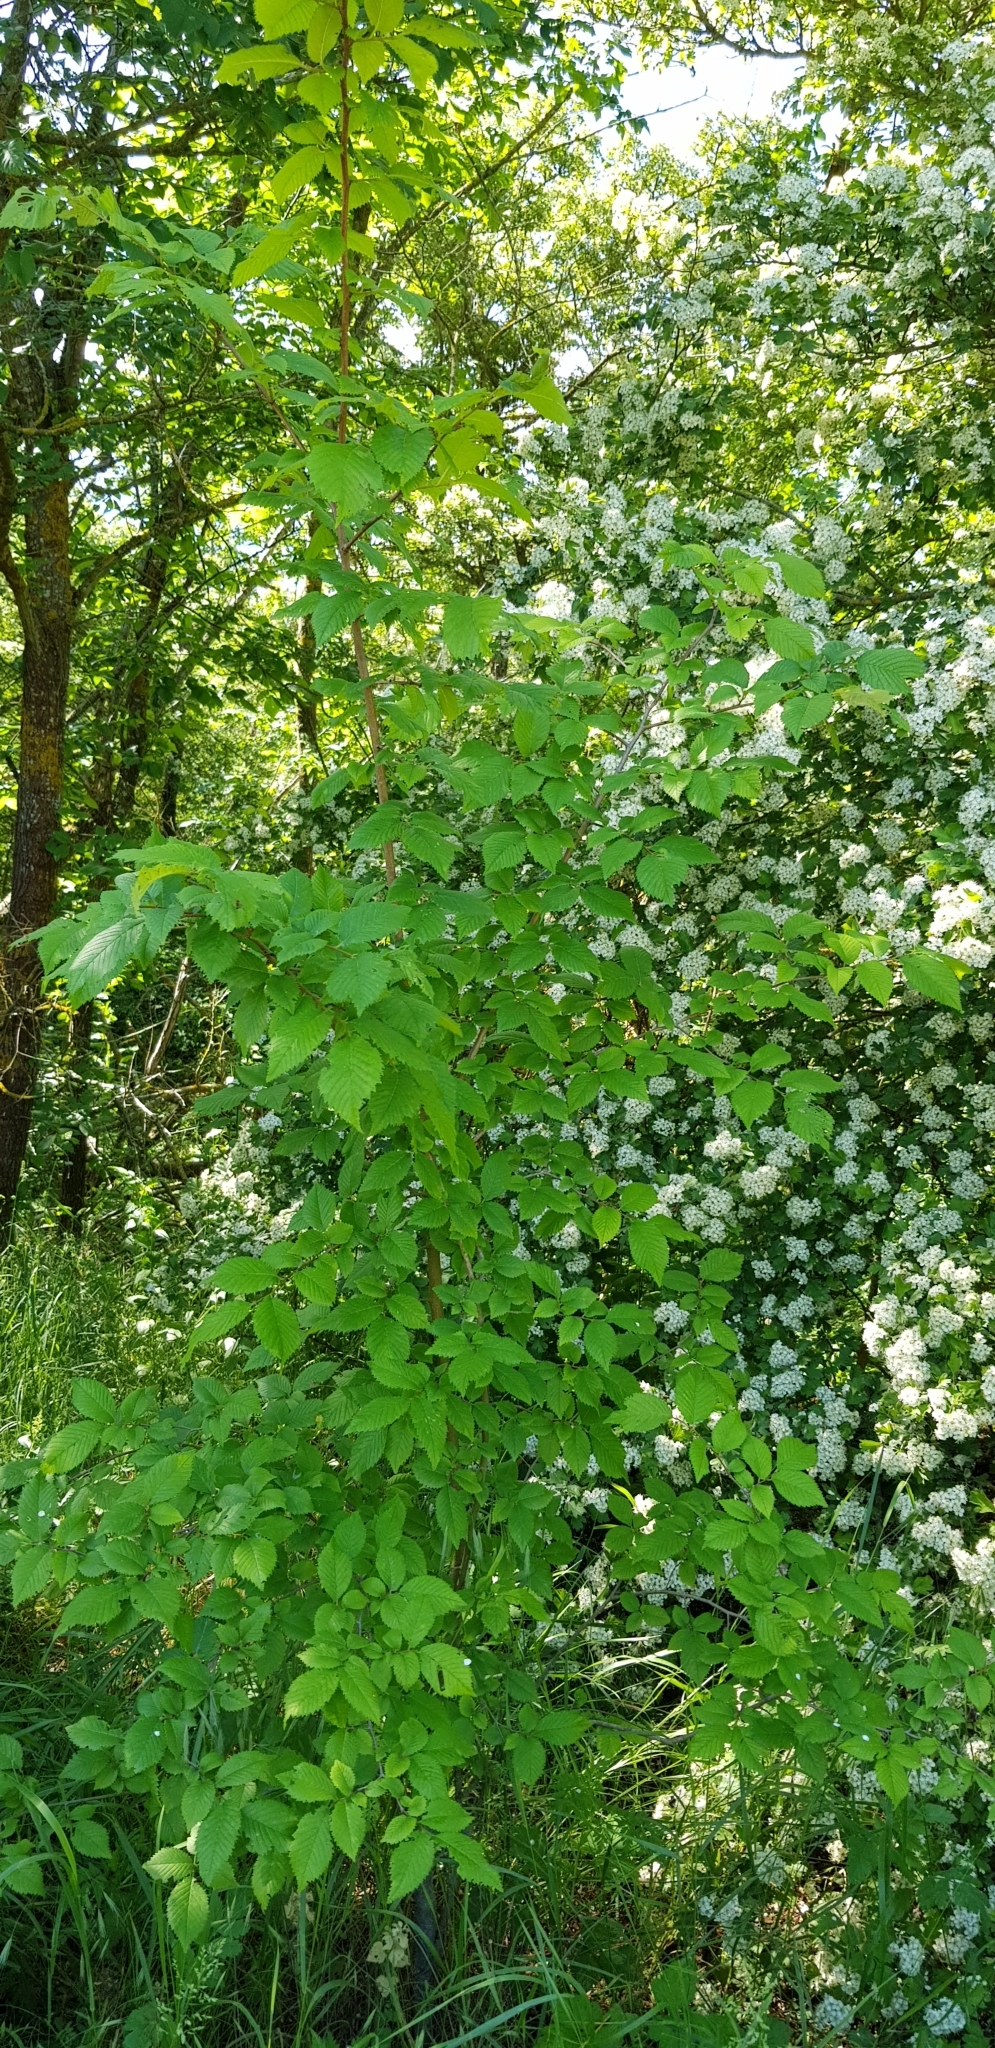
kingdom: Plantae
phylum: Tracheophyta
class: Magnoliopsida
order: Rosales
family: Ulmaceae
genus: Ulmus
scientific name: Ulmus minor
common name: Small-leaved elm
